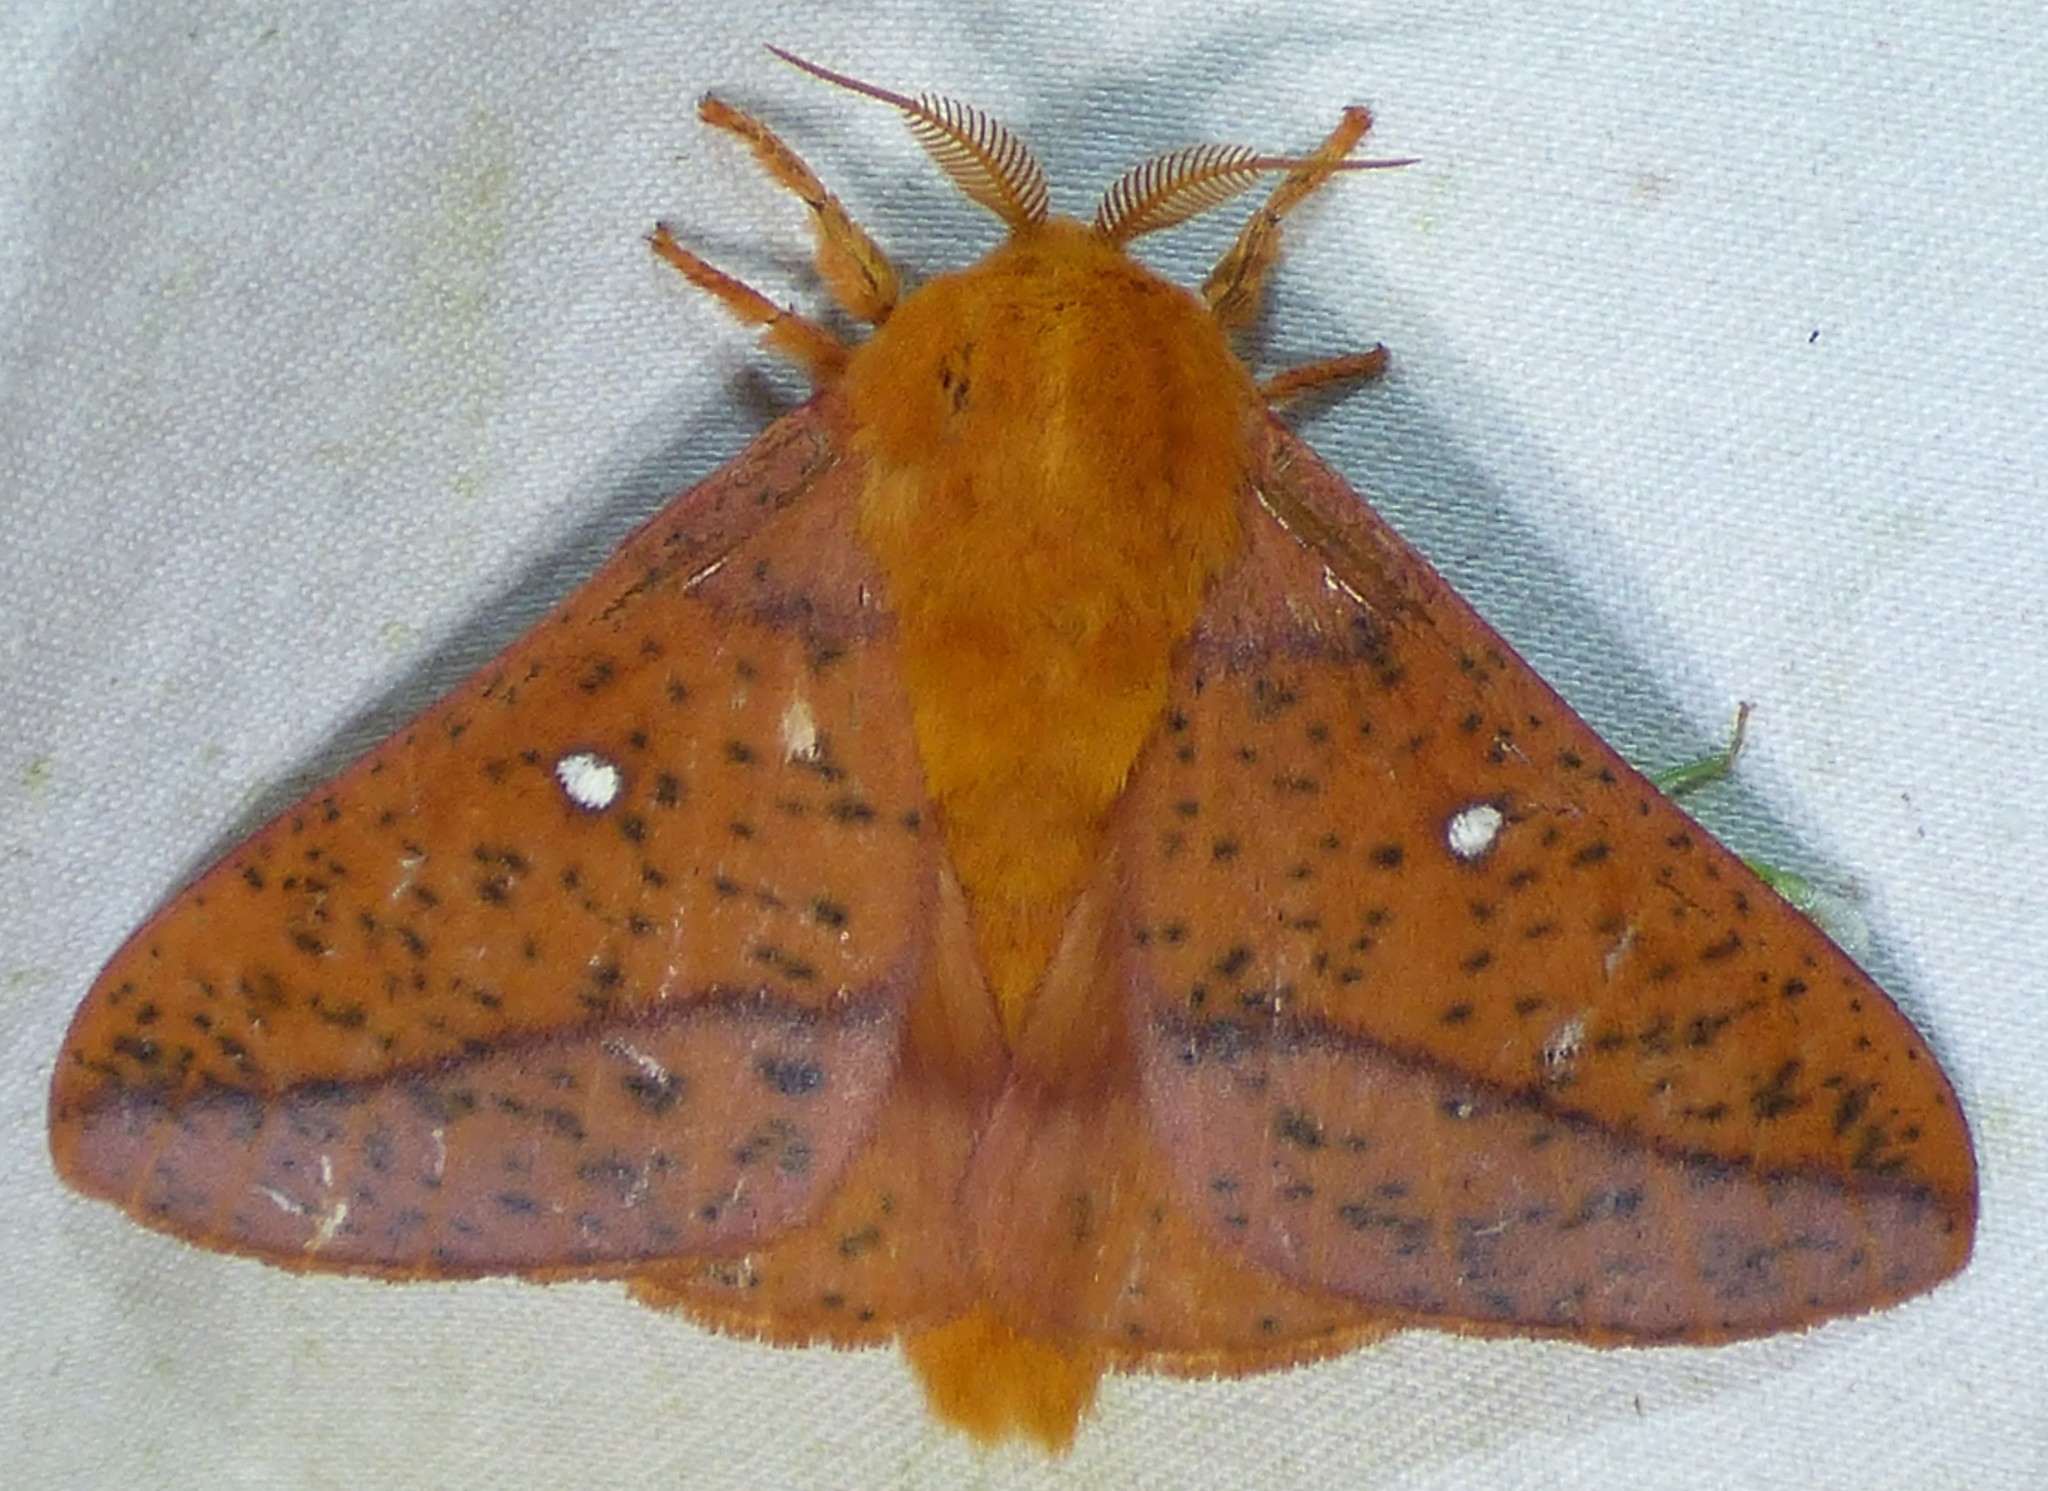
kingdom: Animalia
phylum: Arthropoda
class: Insecta
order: Lepidoptera
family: Saturniidae
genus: Anisota
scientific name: Anisota stigma
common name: Spiny oakworm moth
